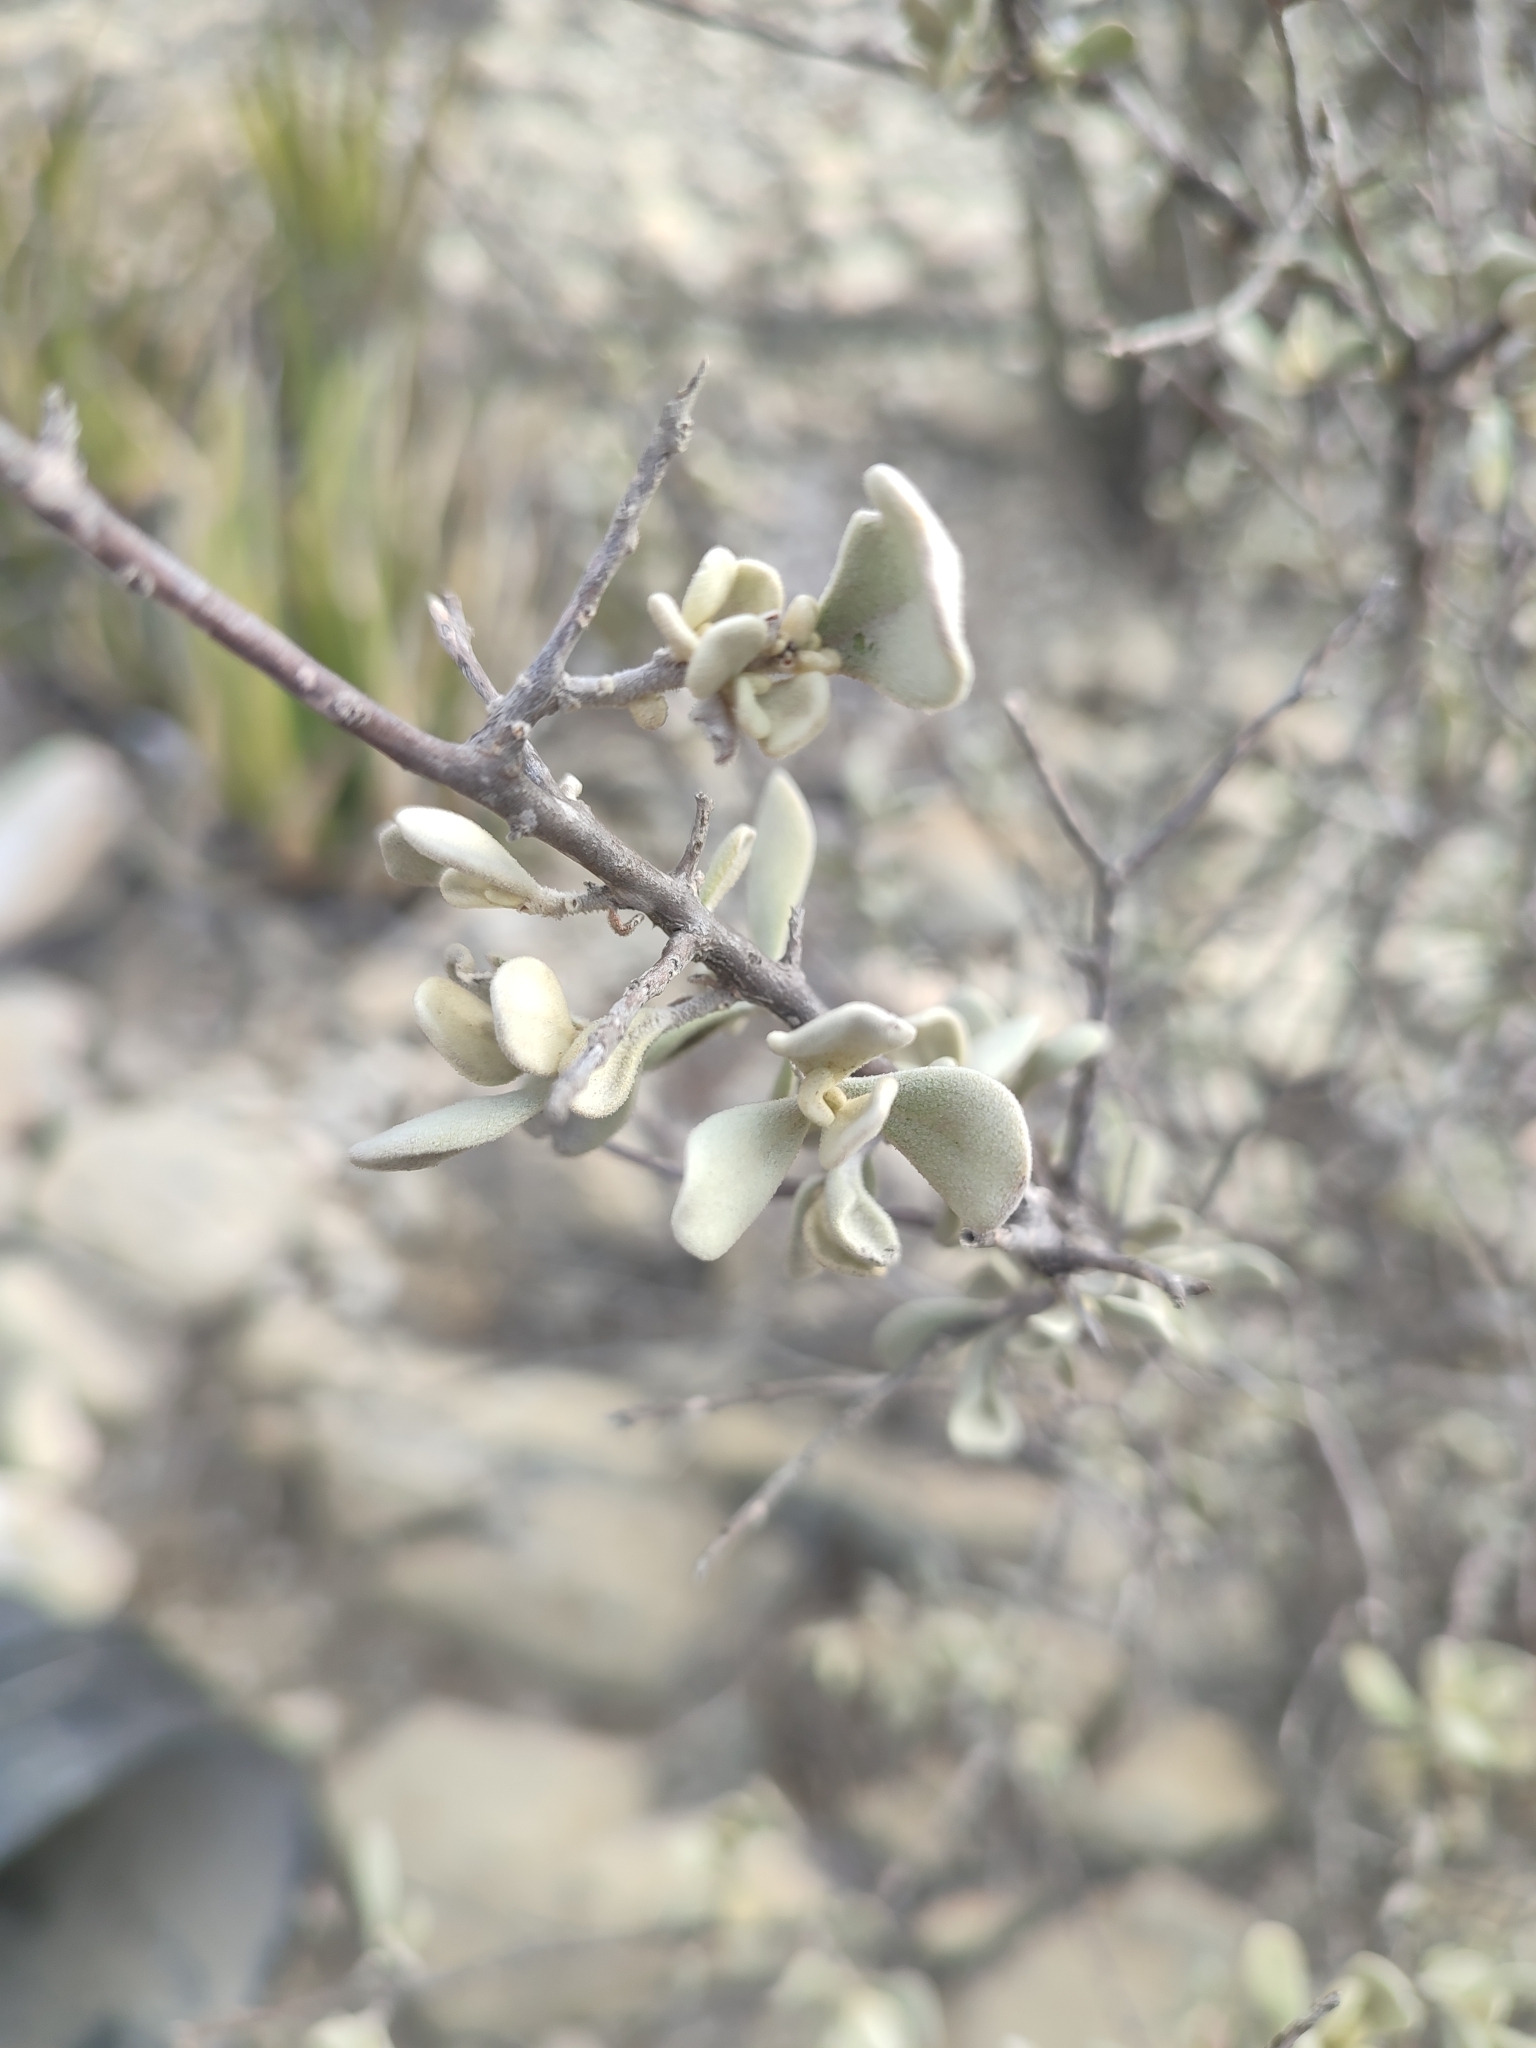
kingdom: Plantae
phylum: Tracheophyta
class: Magnoliopsida
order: Lamiales
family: Scrophulariaceae
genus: Leucophyllum
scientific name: Leucophyllum frutescens
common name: Texas silverleaf
